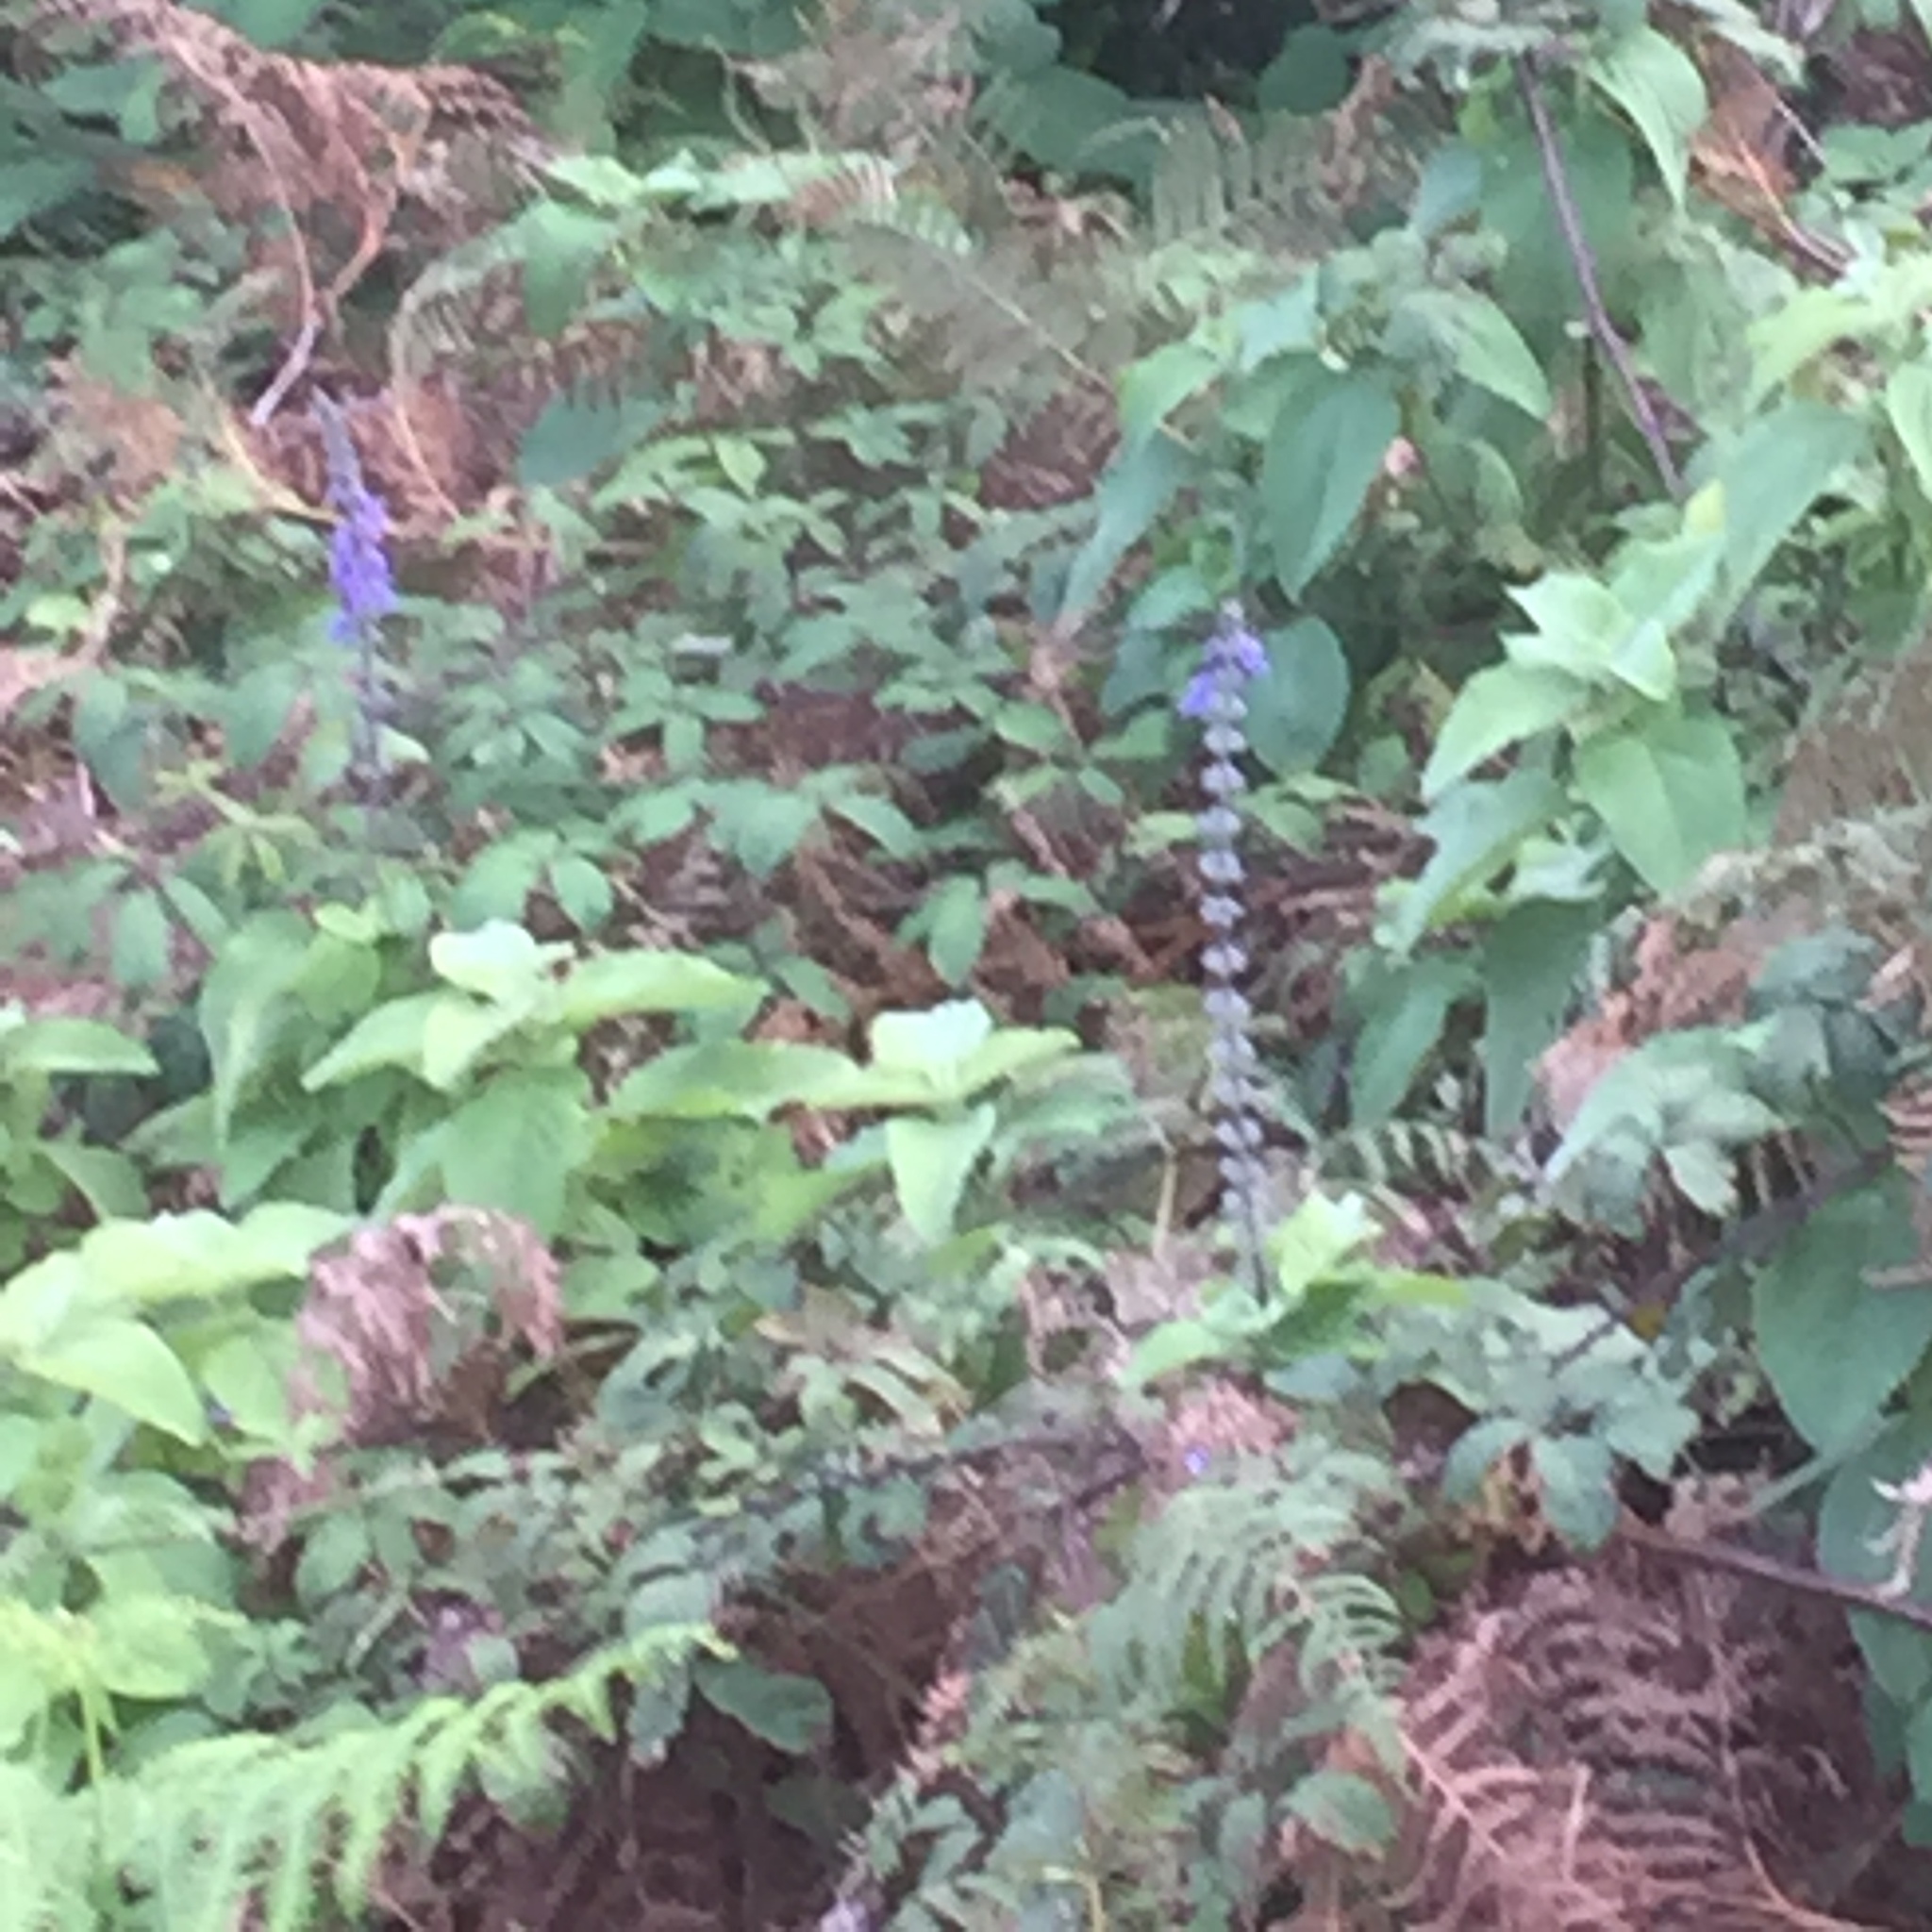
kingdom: Plantae
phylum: Tracheophyta
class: Magnoliopsida
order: Lamiales
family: Lamiaceae
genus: Coleus
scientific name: Coleus barbatus
